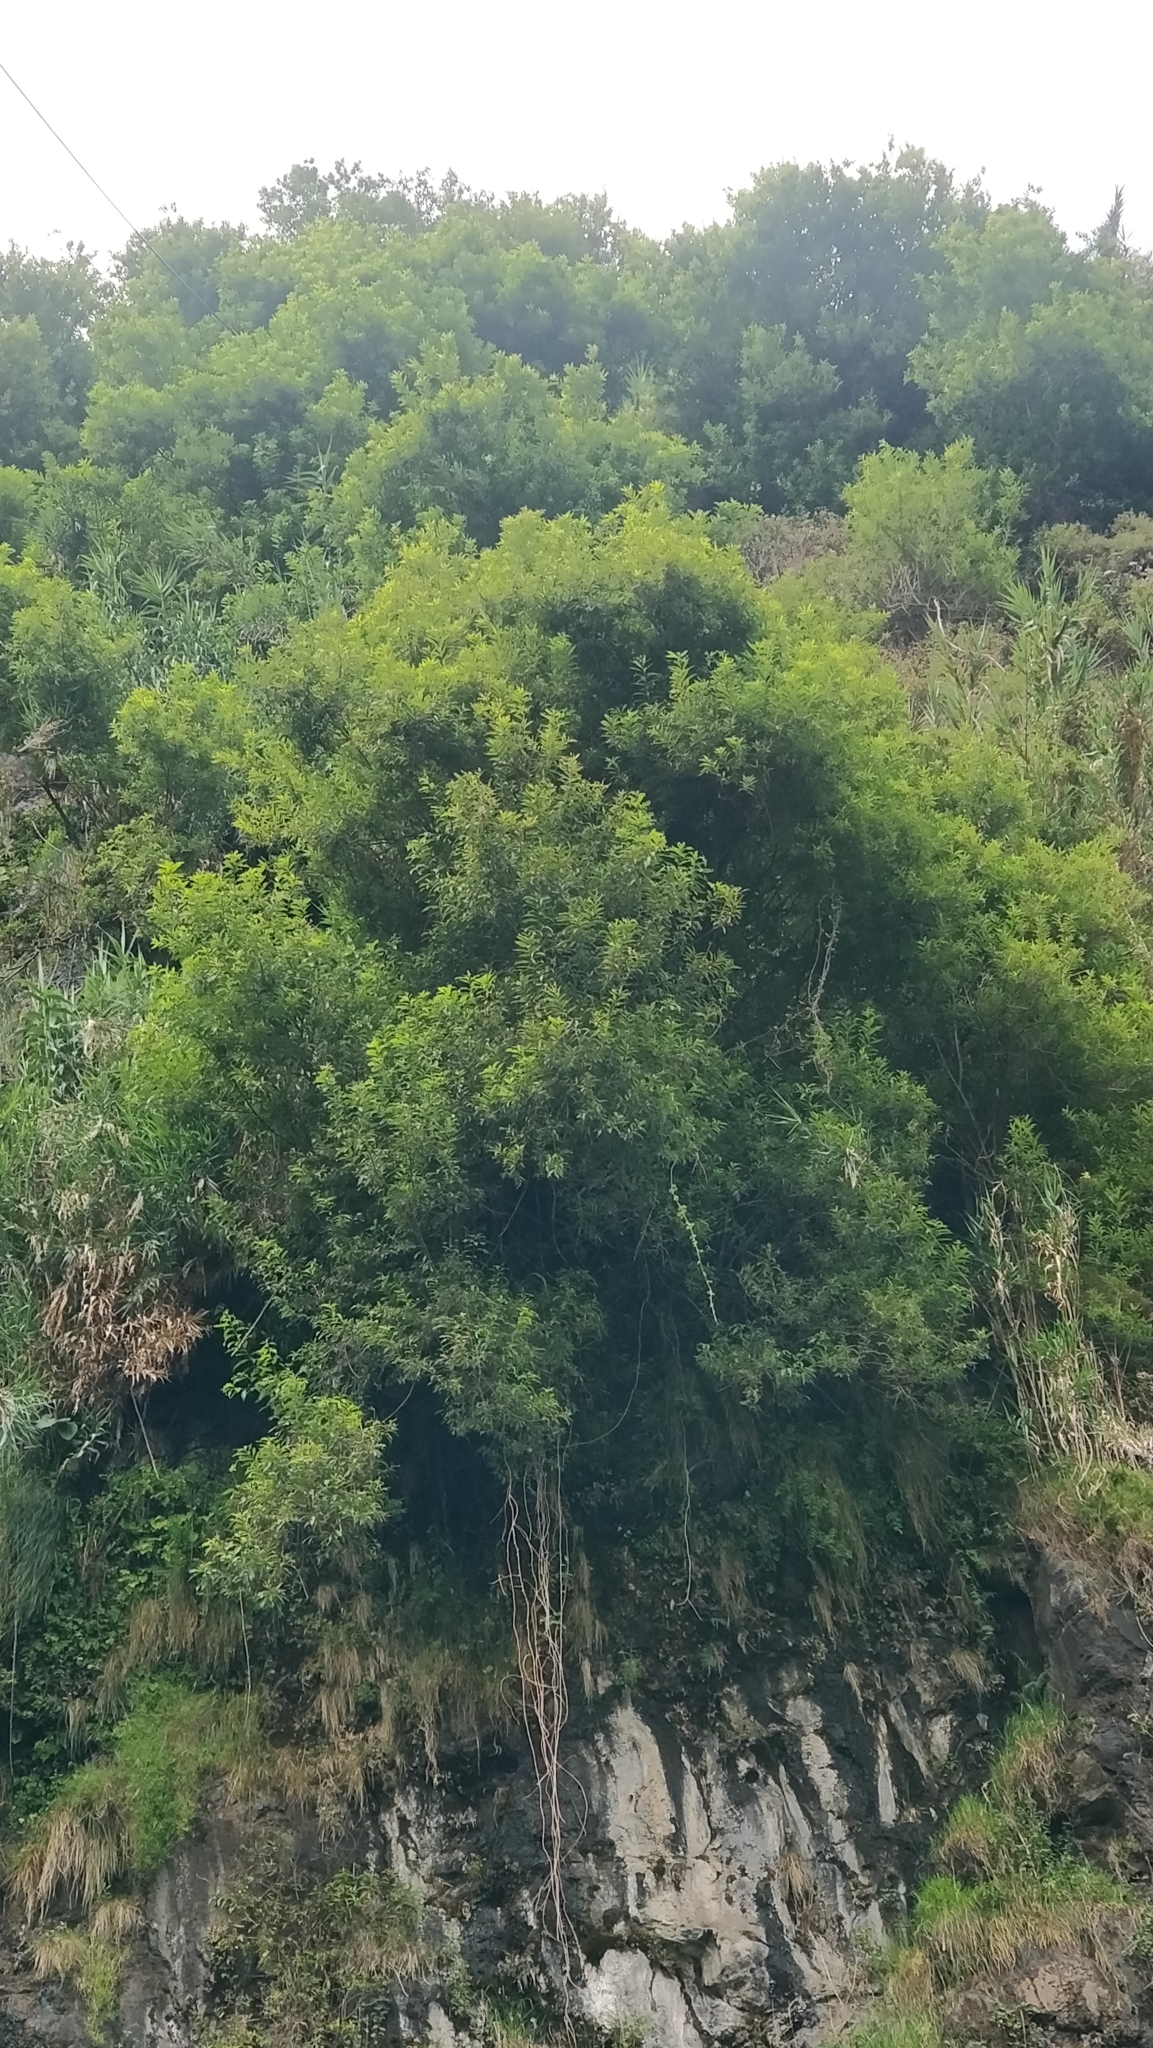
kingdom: Plantae
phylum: Tracheophyta
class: Magnoliopsida
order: Malpighiales
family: Salicaceae
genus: Salix
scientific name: Salix canariensis
